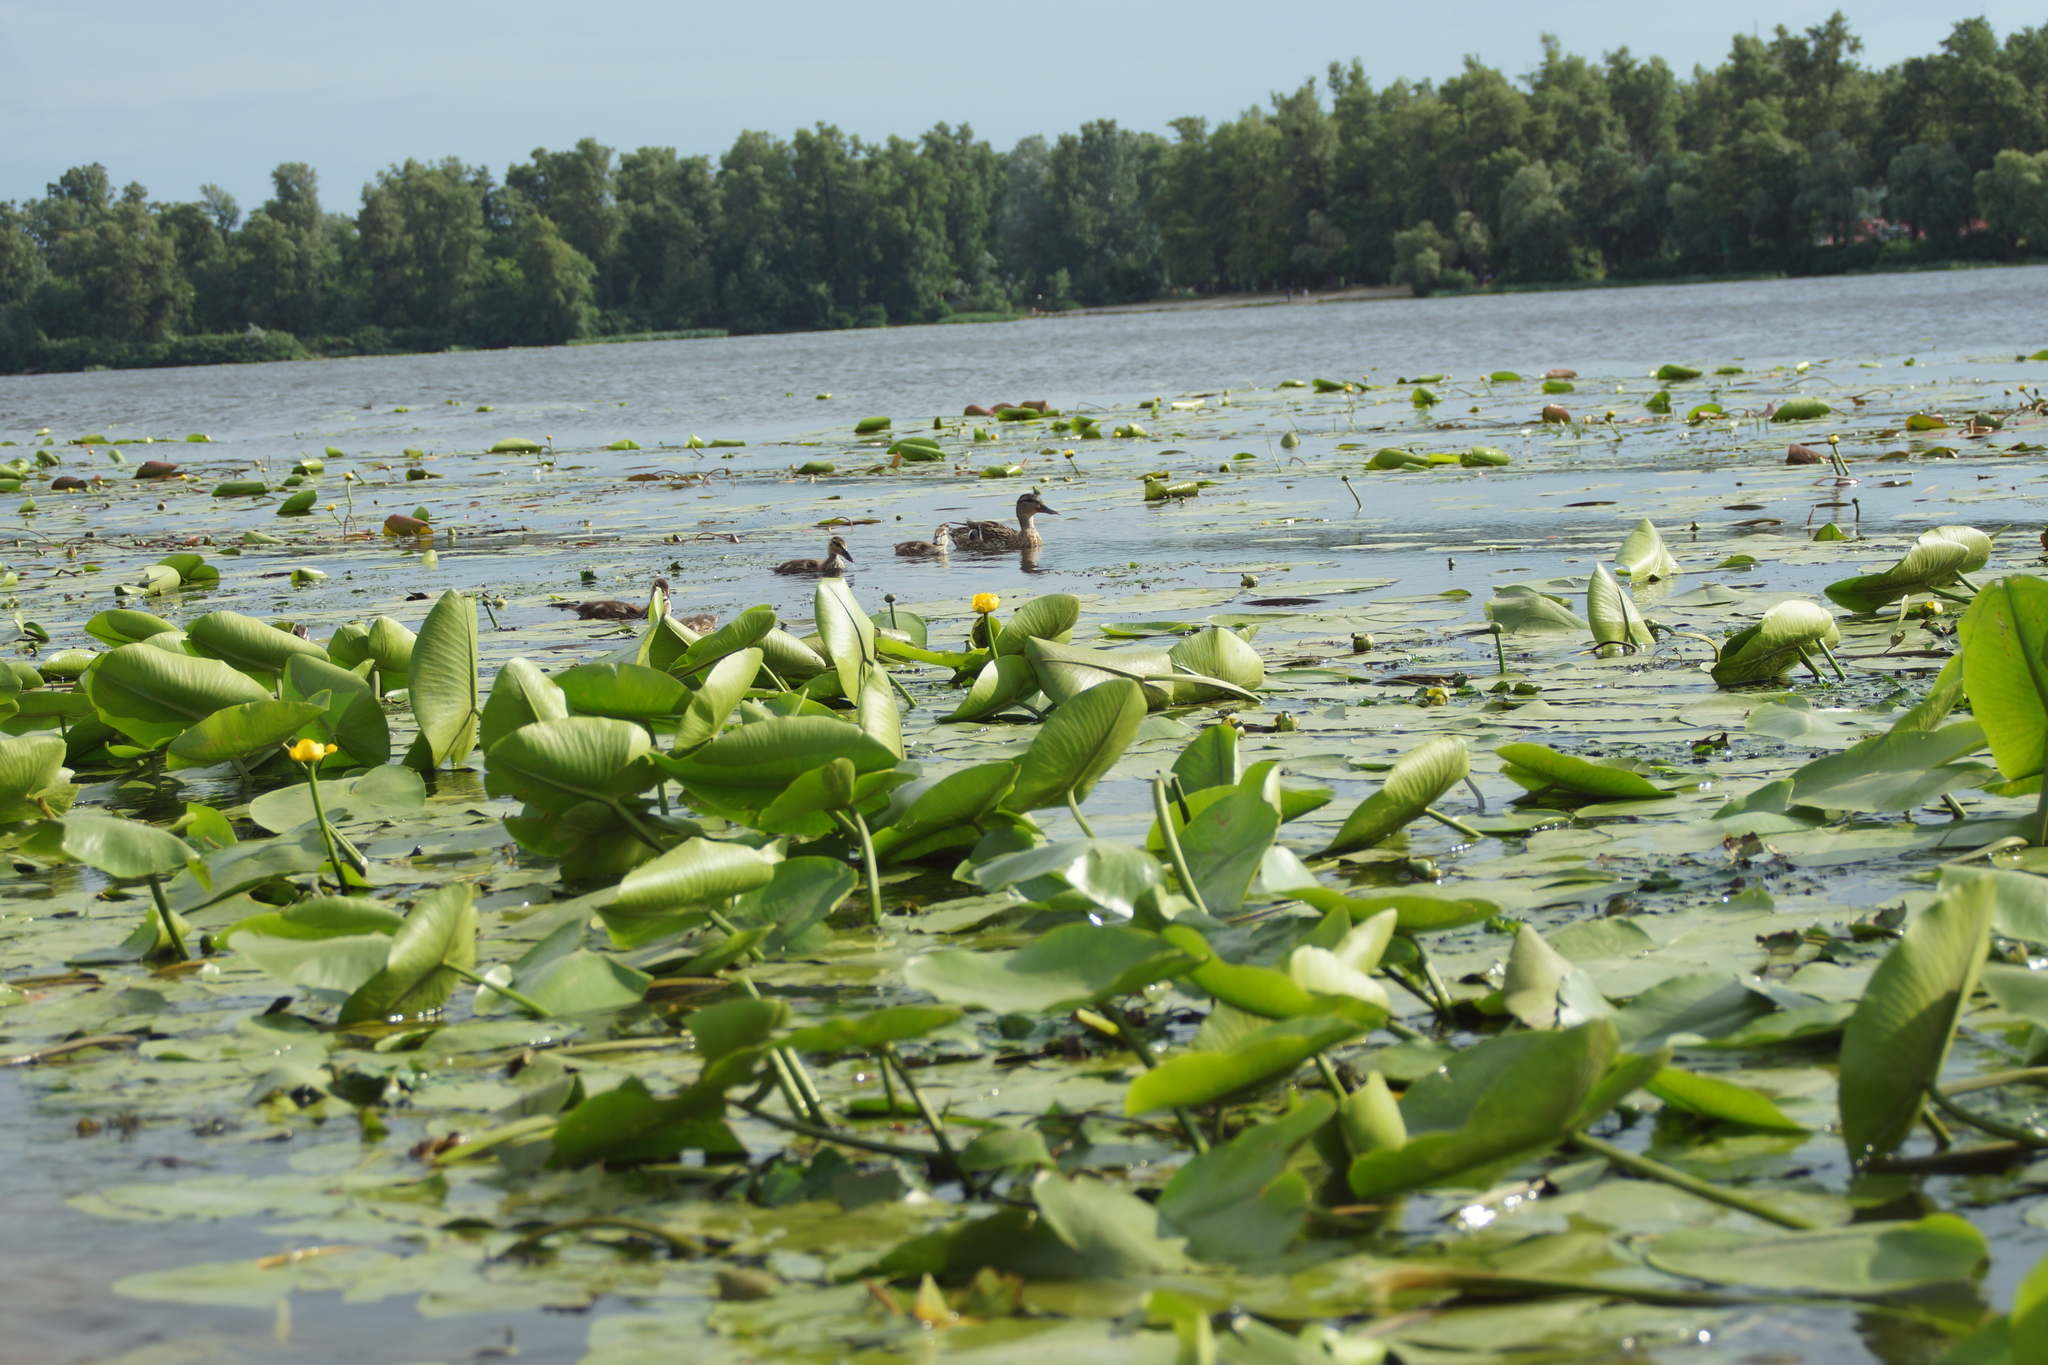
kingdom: Animalia
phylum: Chordata
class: Aves
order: Anseriformes
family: Anatidae
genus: Anas
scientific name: Anas platyrhynchos
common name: Mallard
